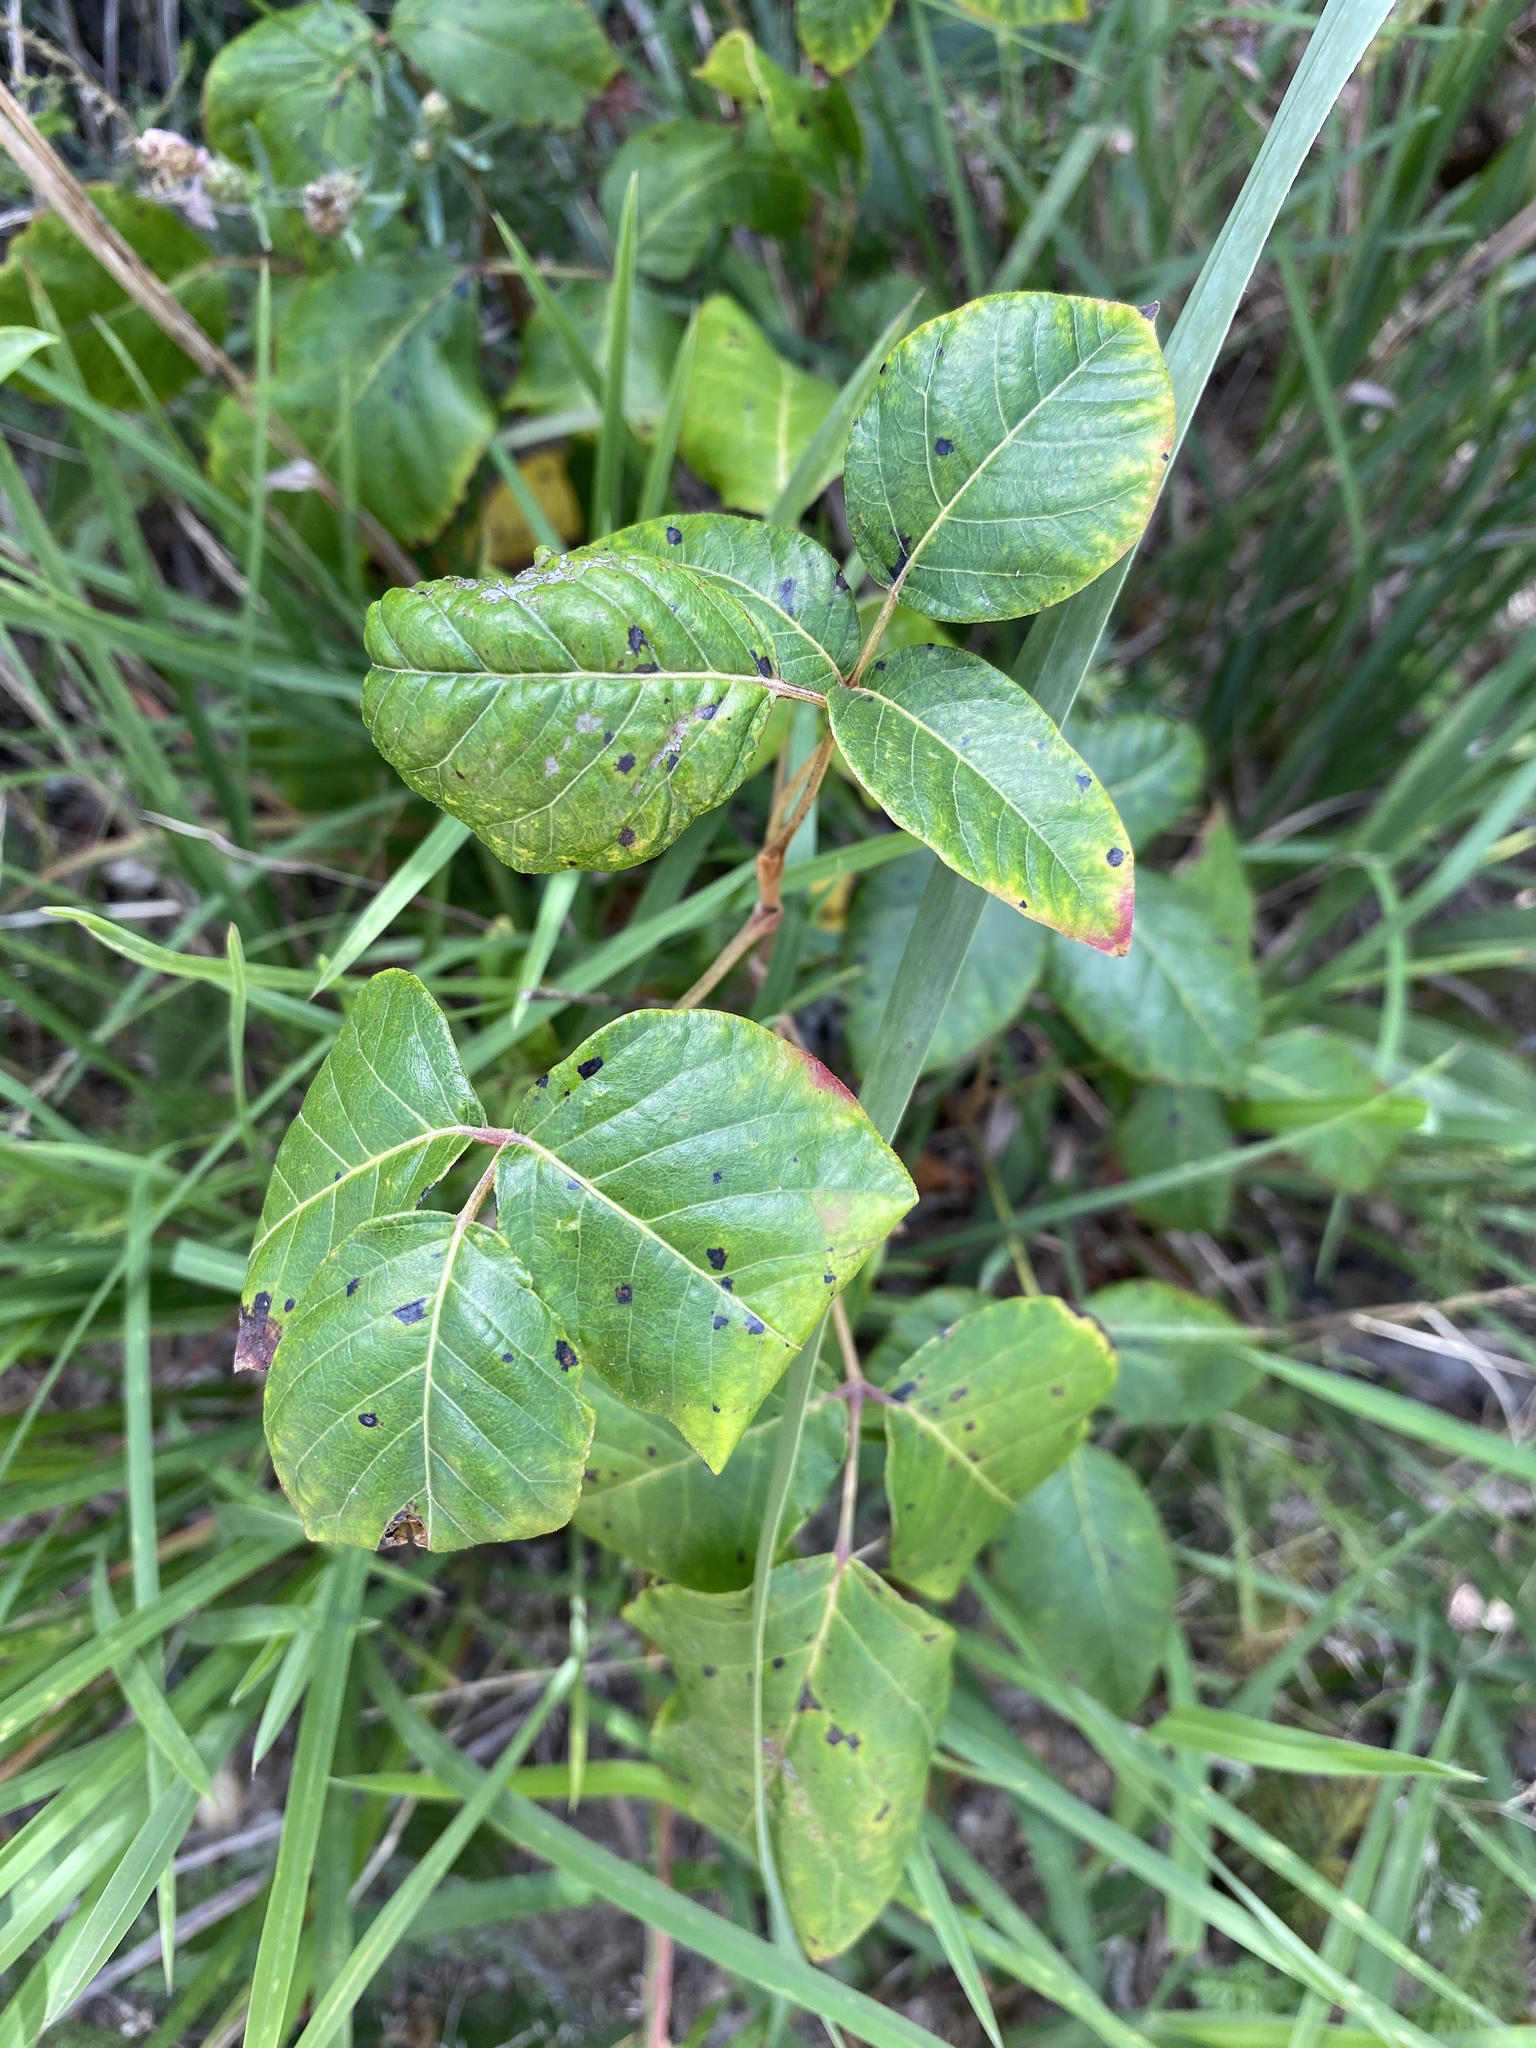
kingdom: Plantae
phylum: Tracheophyta
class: Magnoliopsida
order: Sapindales
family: Anacardiaceae
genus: Toxicodendron
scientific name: Toxicodendron radicans
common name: Poison ivy
